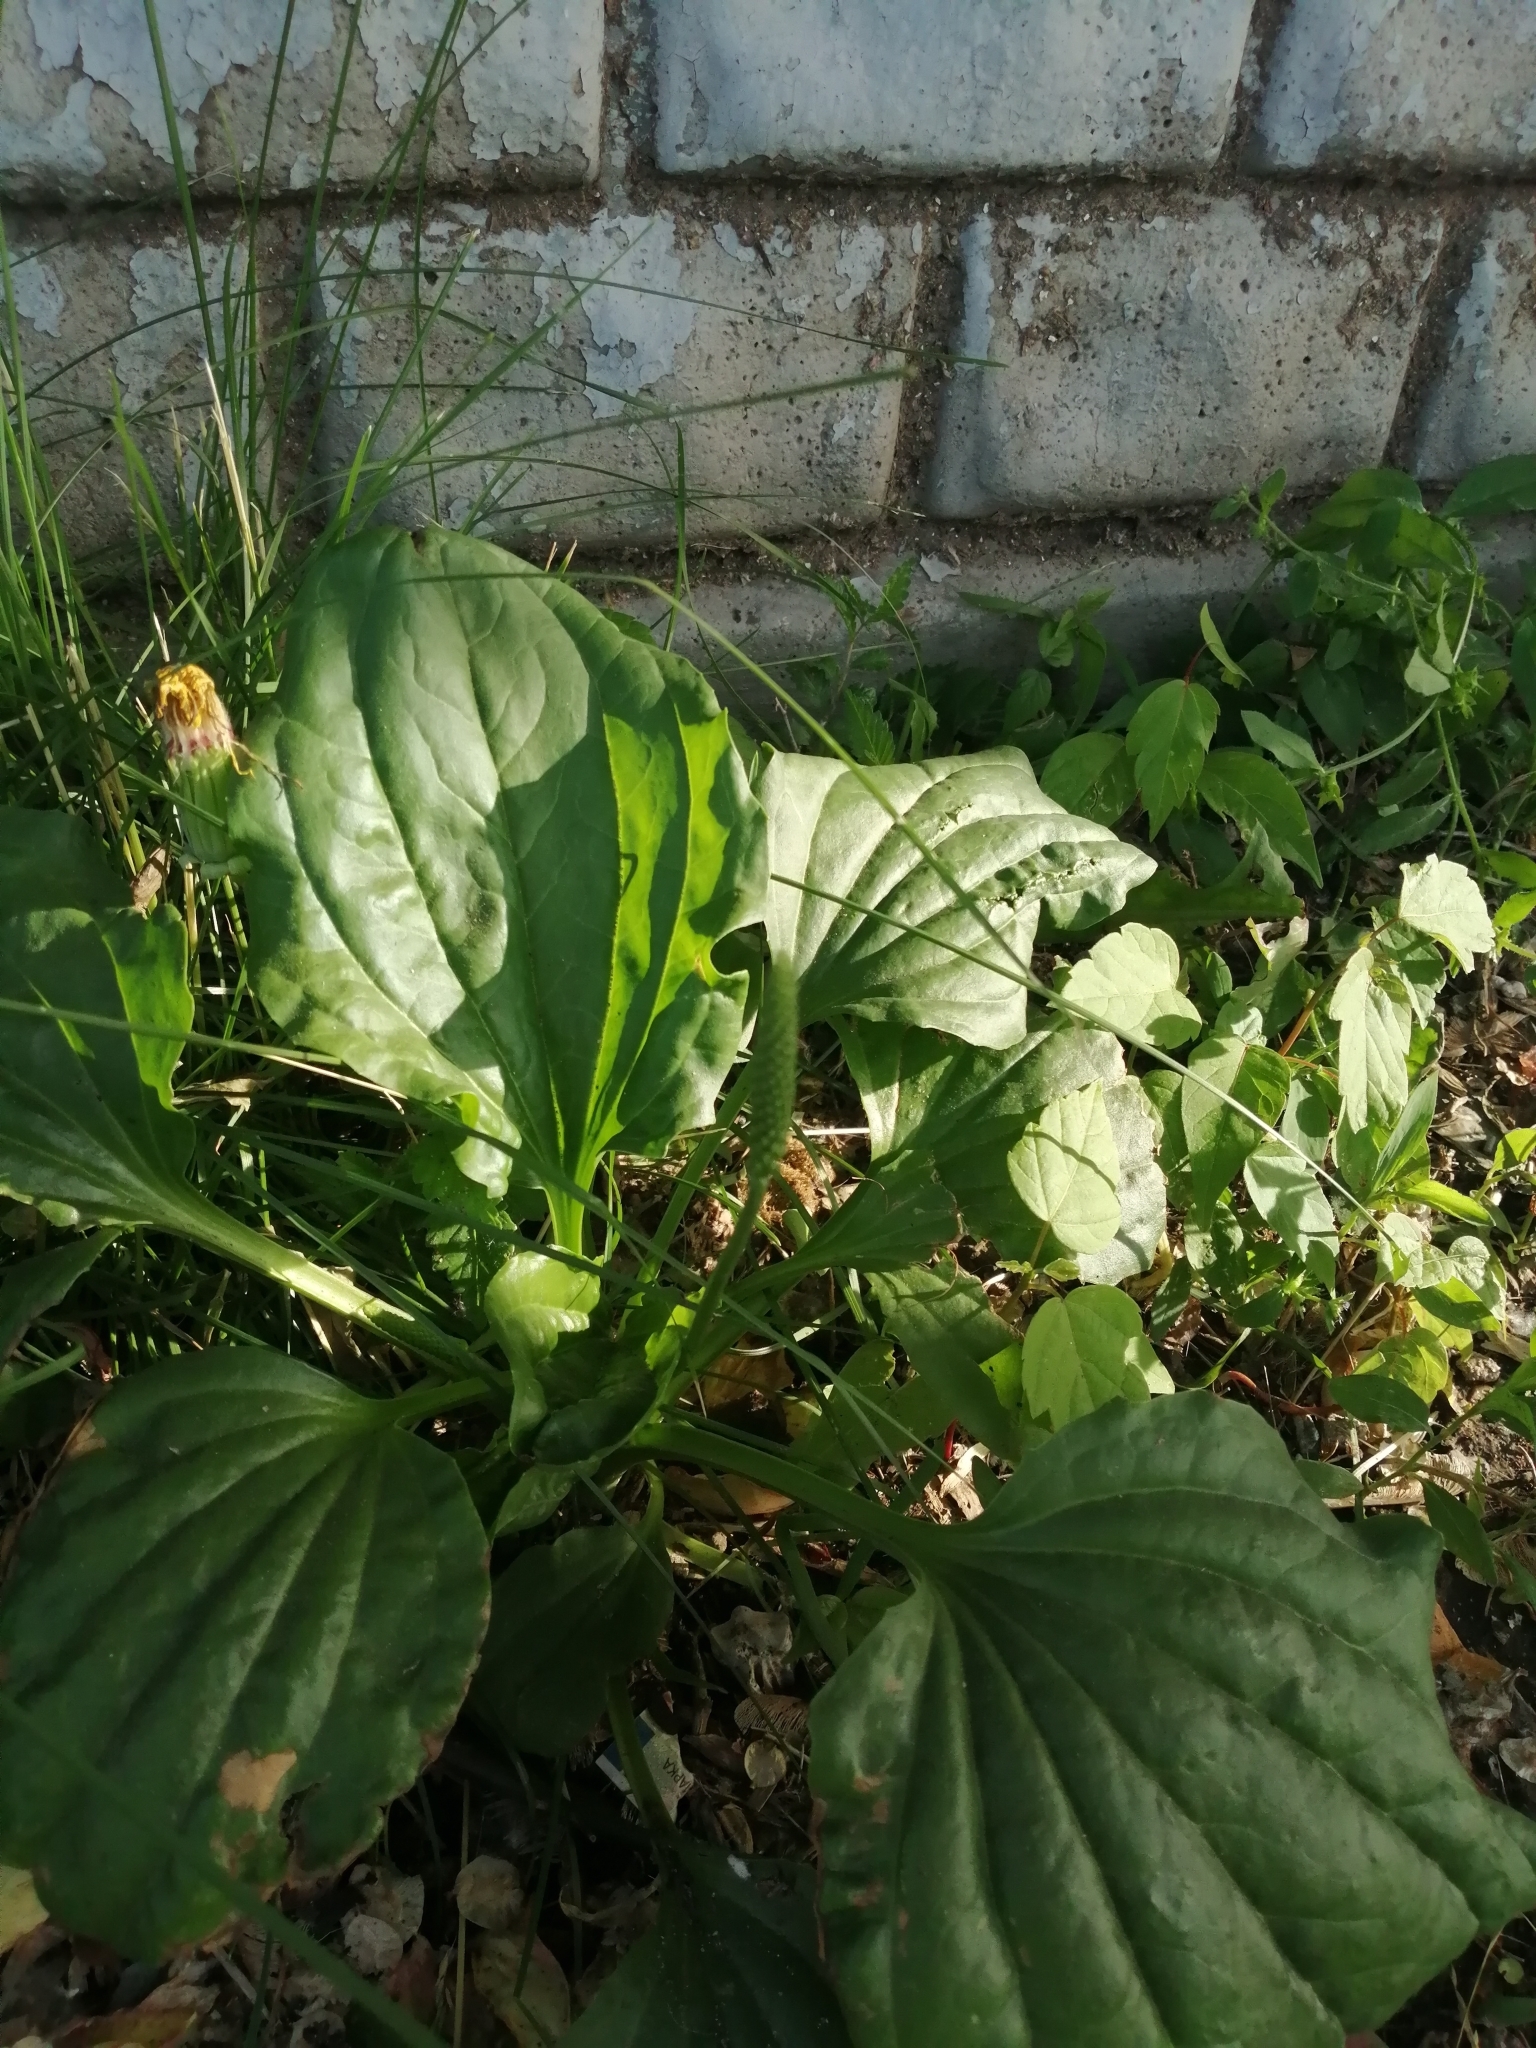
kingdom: Plantae
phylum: Tracheophyta
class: Magnoliopsida
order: Lamiales
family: Plantaginaceae
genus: Plantago
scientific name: Plantago major
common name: Common plantain
